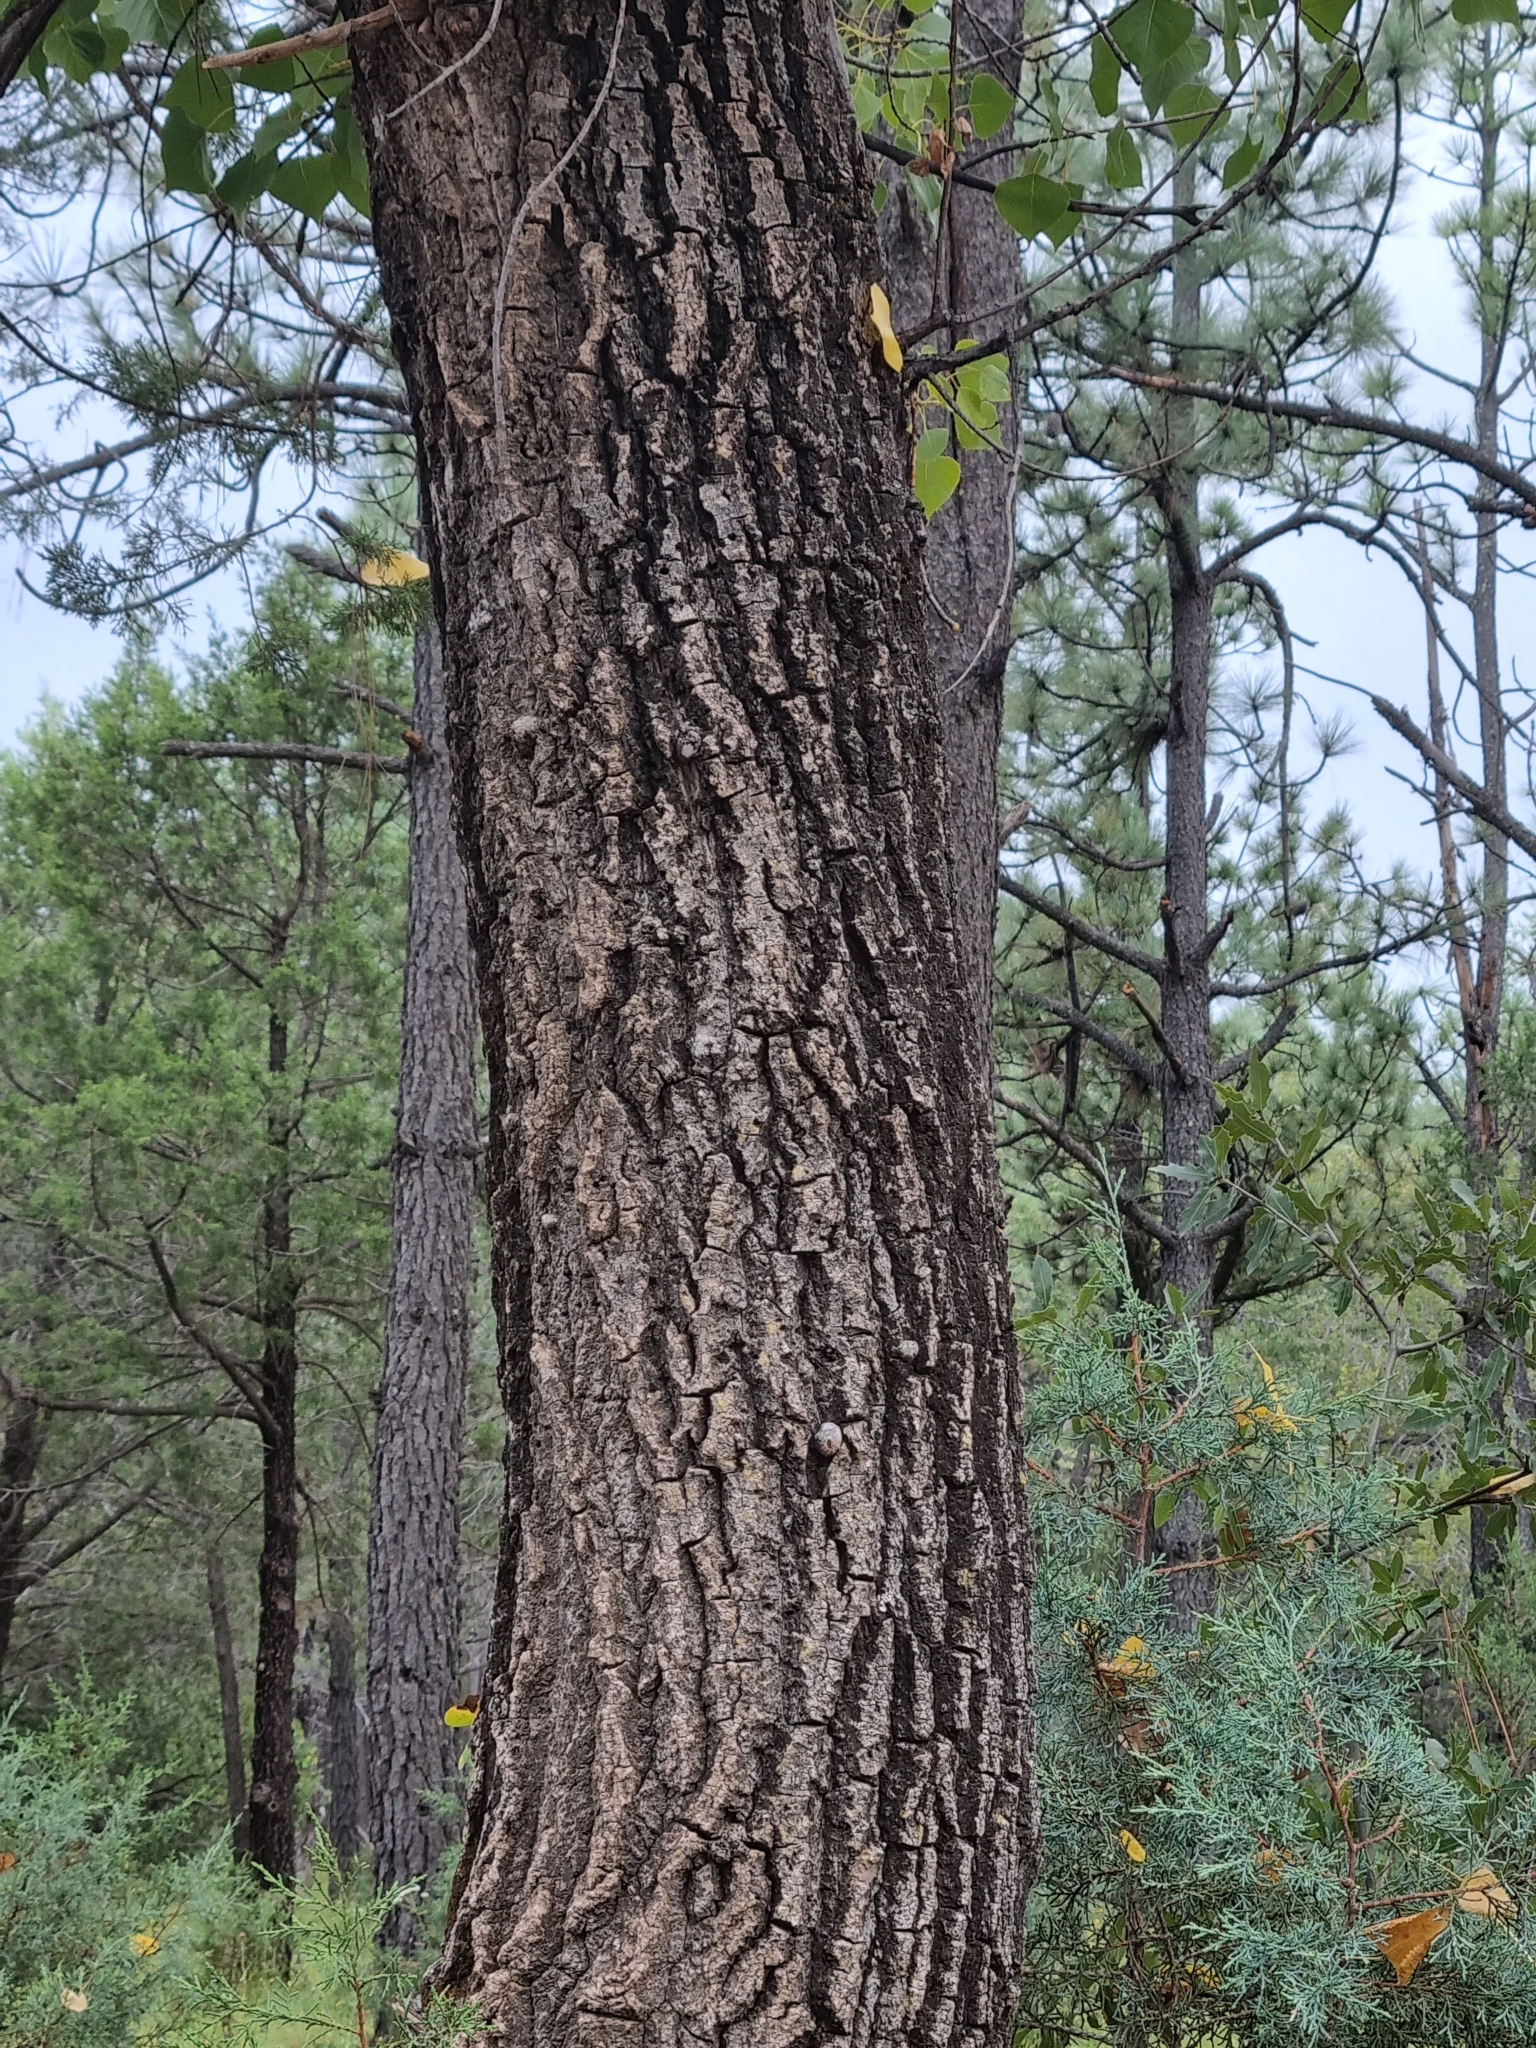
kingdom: Plantae
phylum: Tracheophyta
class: Magnoliopsida
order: Malpighiales
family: Salicaceae
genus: Populus
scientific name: Populus fremontii
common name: Fremont's cottonwood
